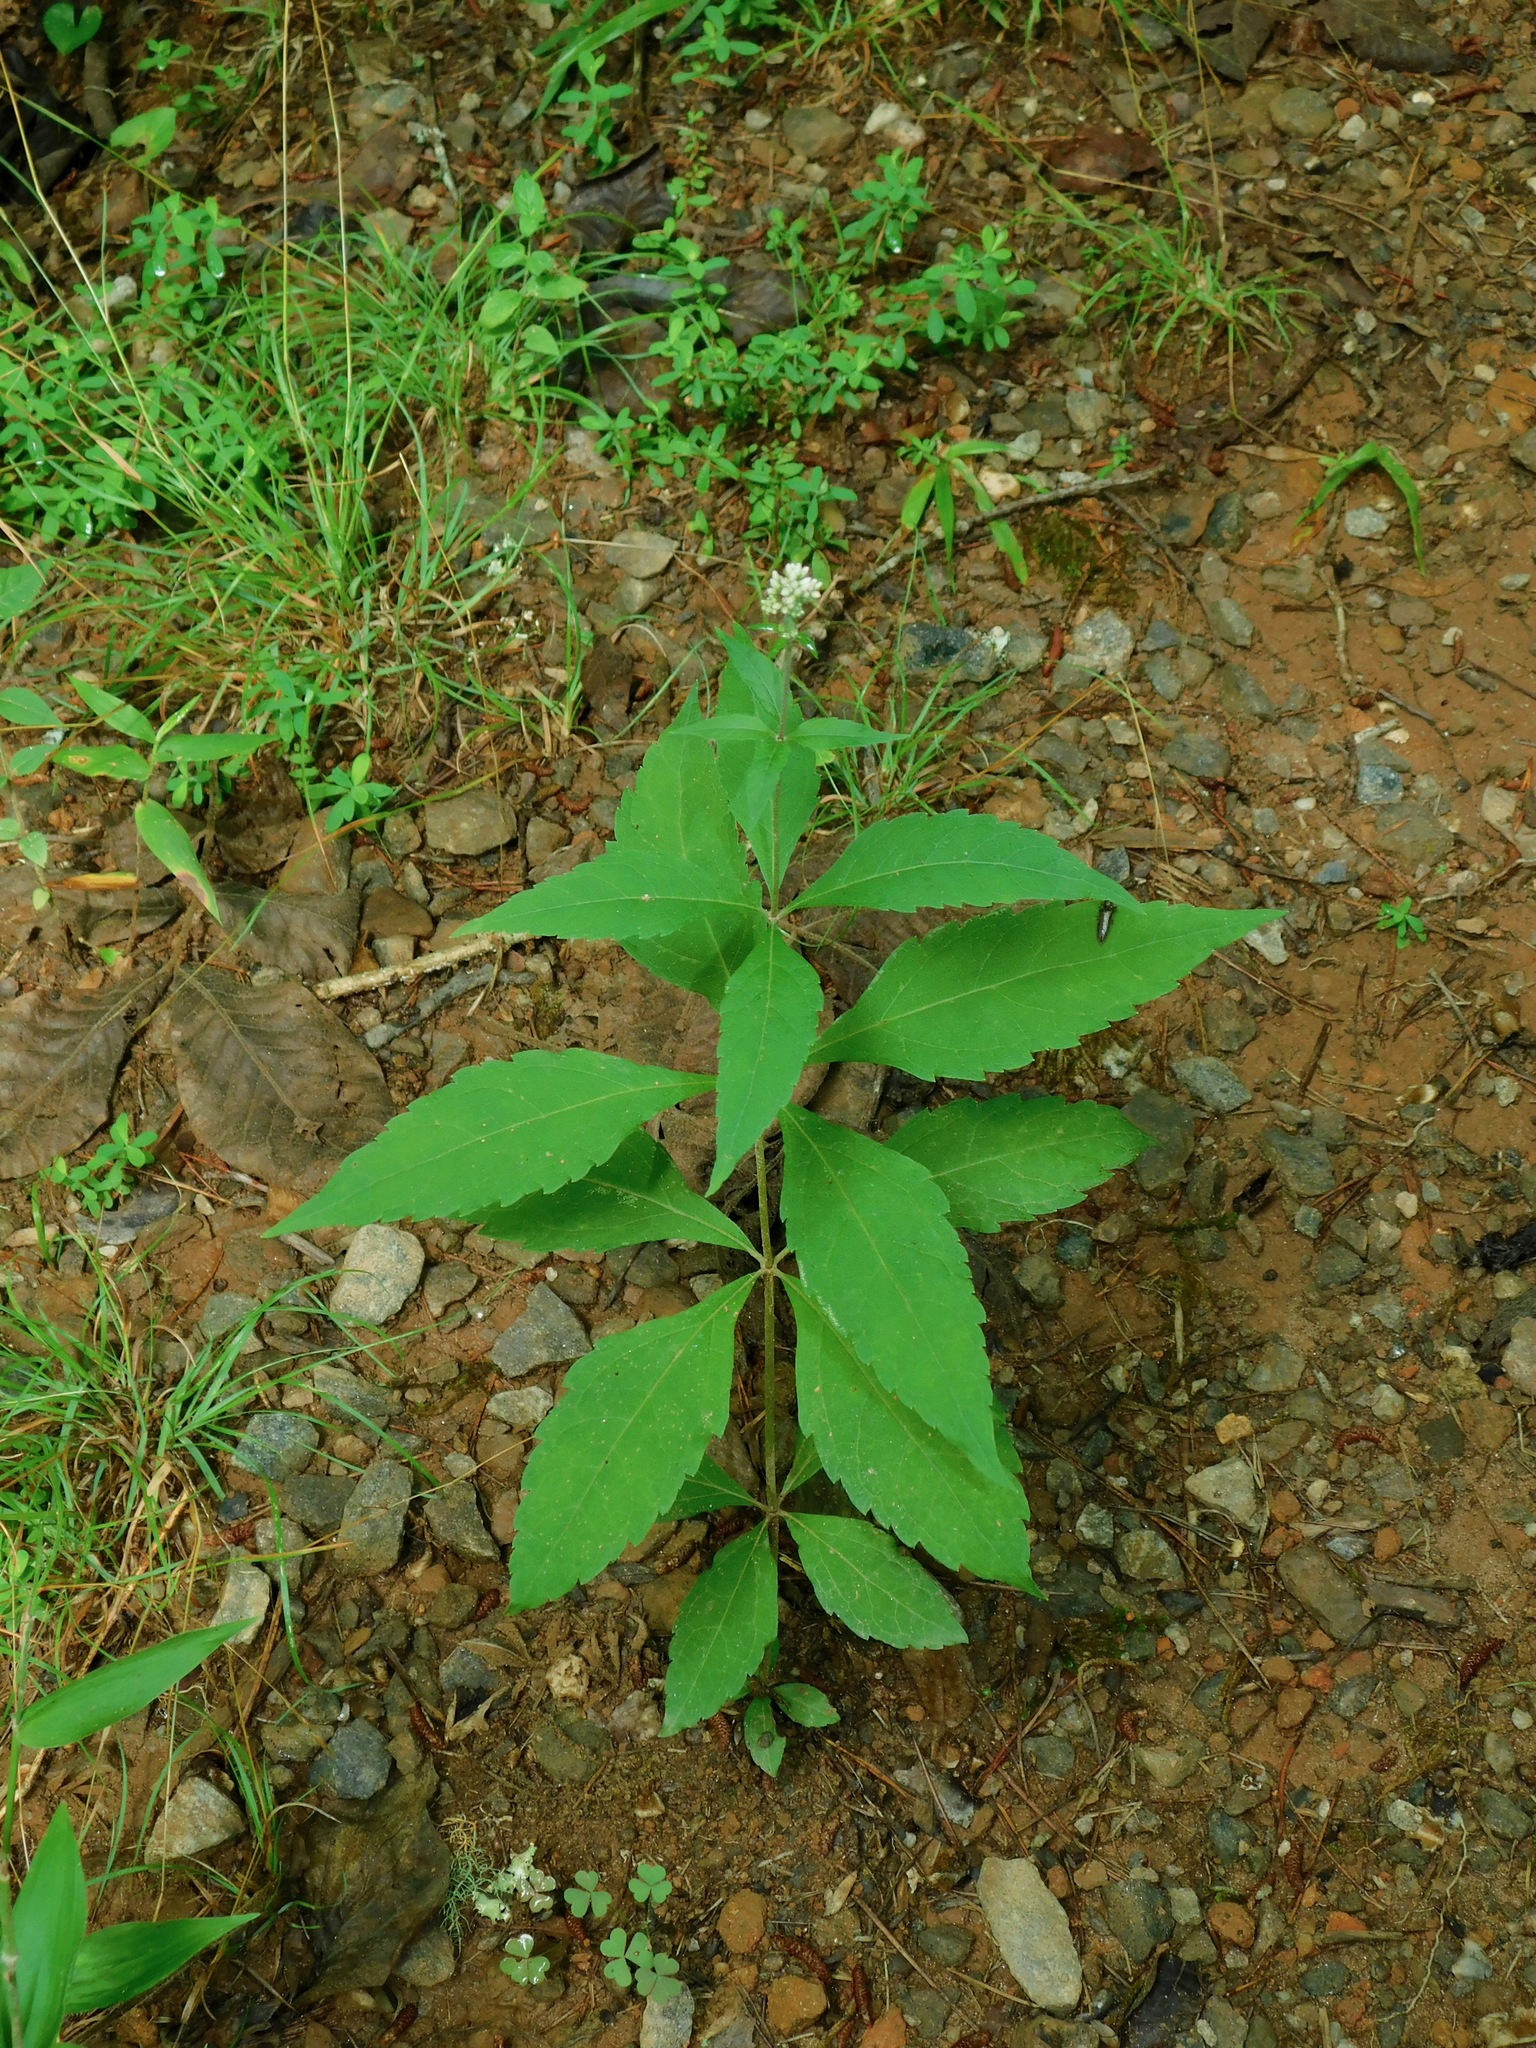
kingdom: Plantae
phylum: Tracheophyta
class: Magnoliopsida
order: Asterales
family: Asteraceae
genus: Eutrochium
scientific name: Eutrochium purpureum
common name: Gravelroot
